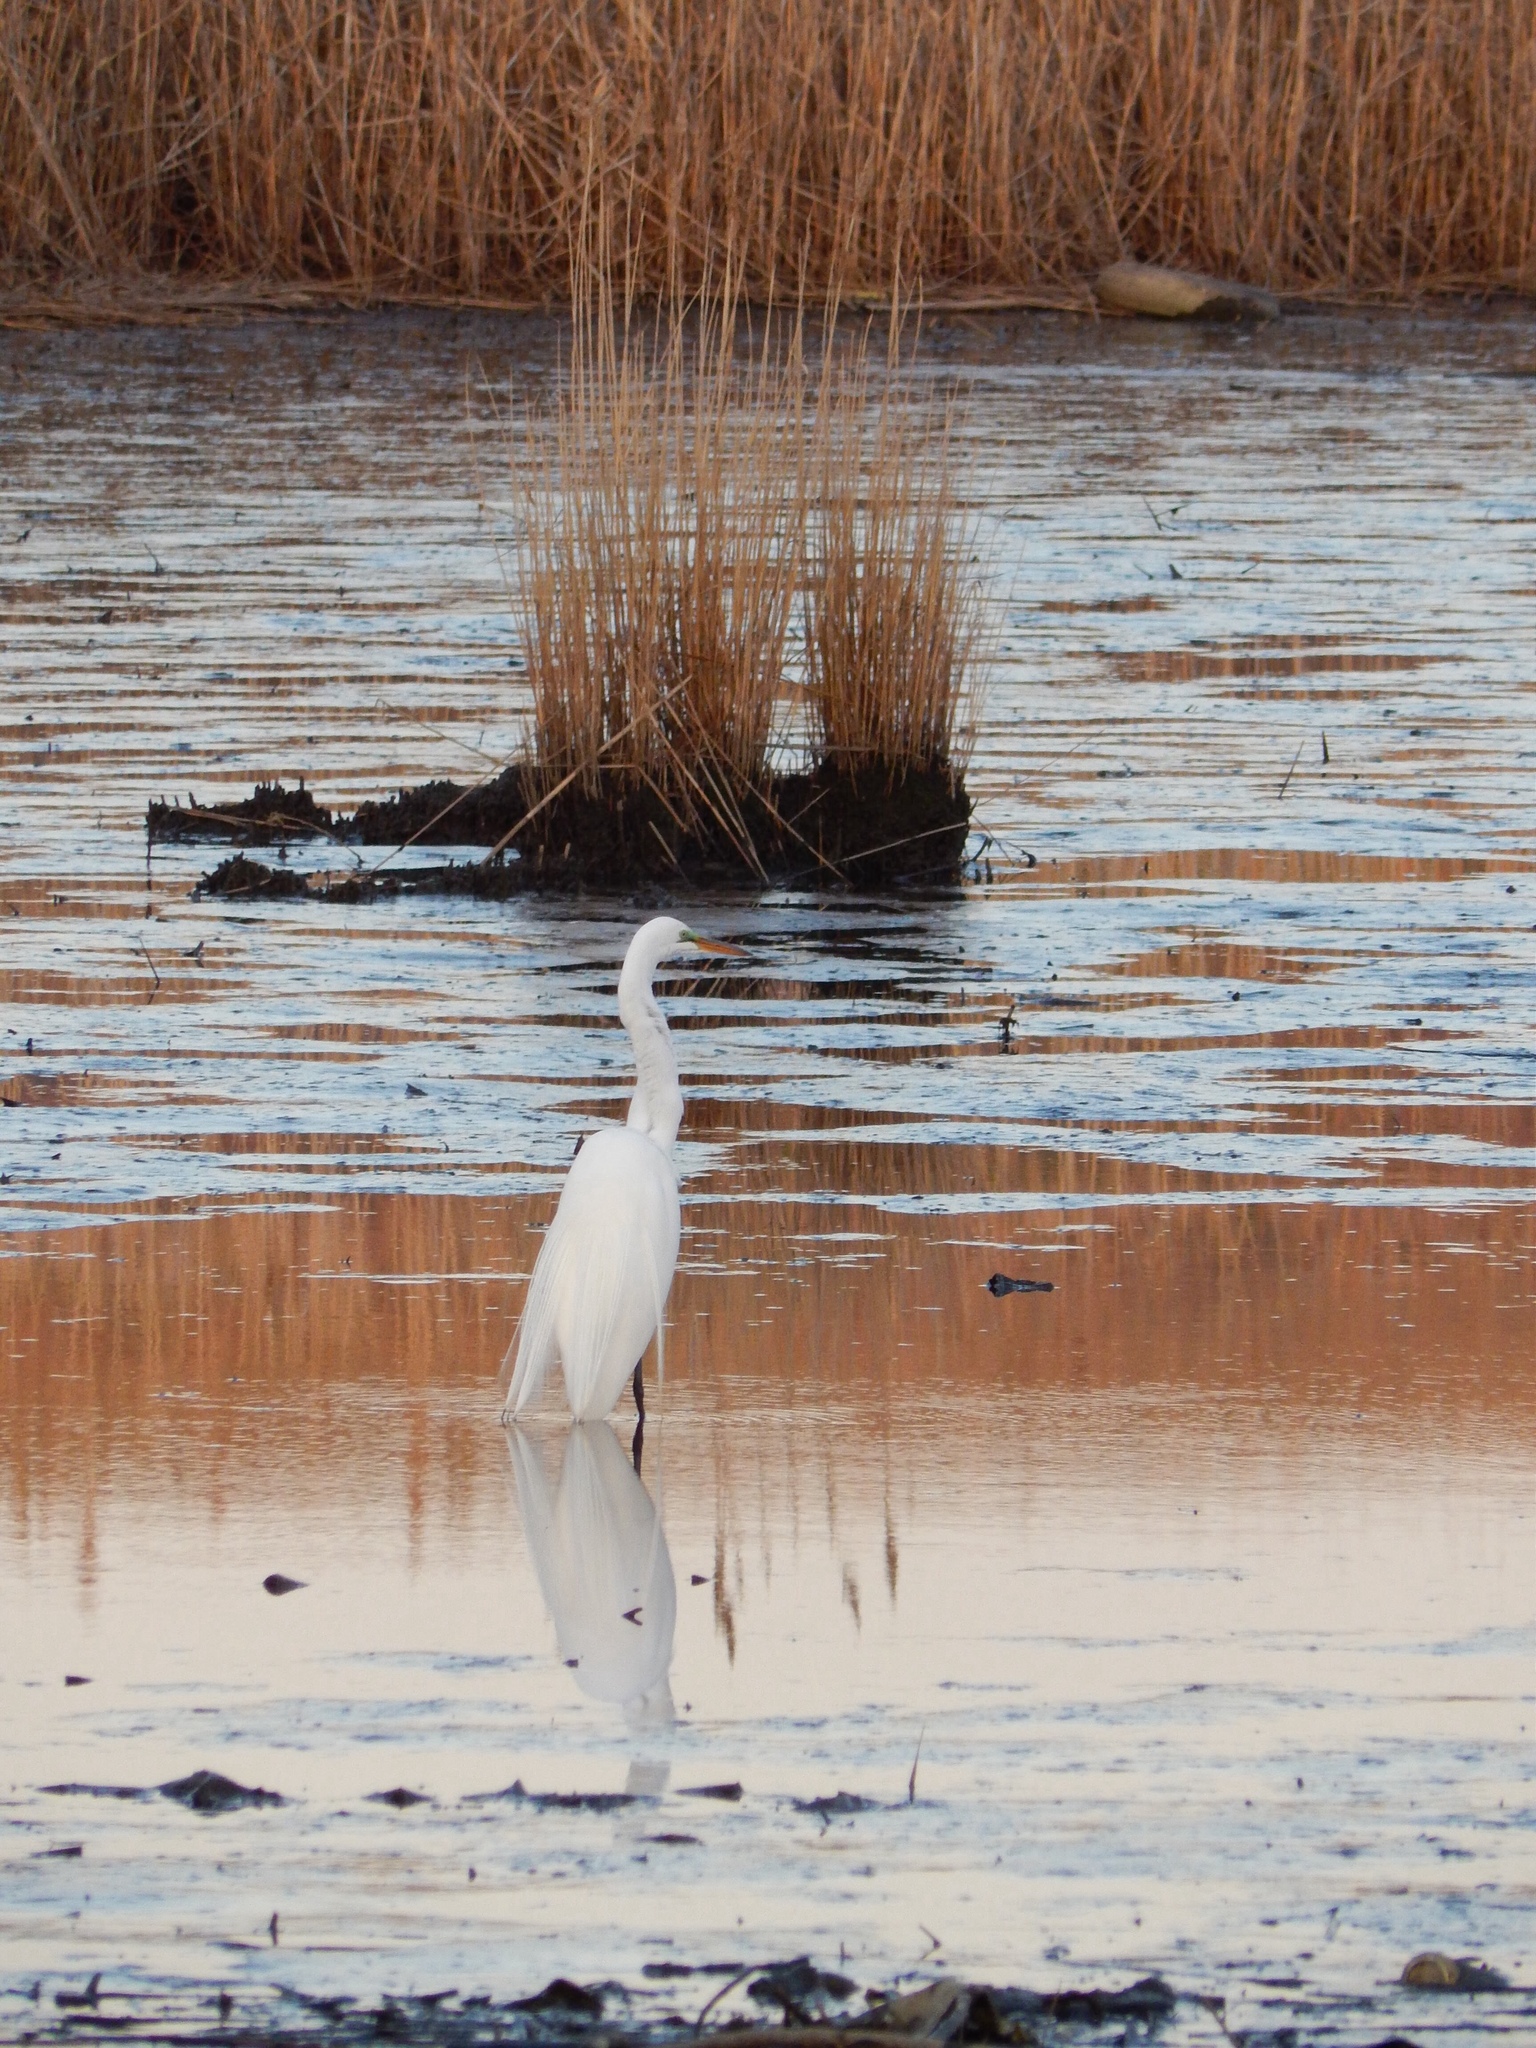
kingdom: Animalia
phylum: Chordata
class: Aves
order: Pelecaniformes
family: Ardeidae
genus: Ardea
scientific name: Ardea alba
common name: Great egret
